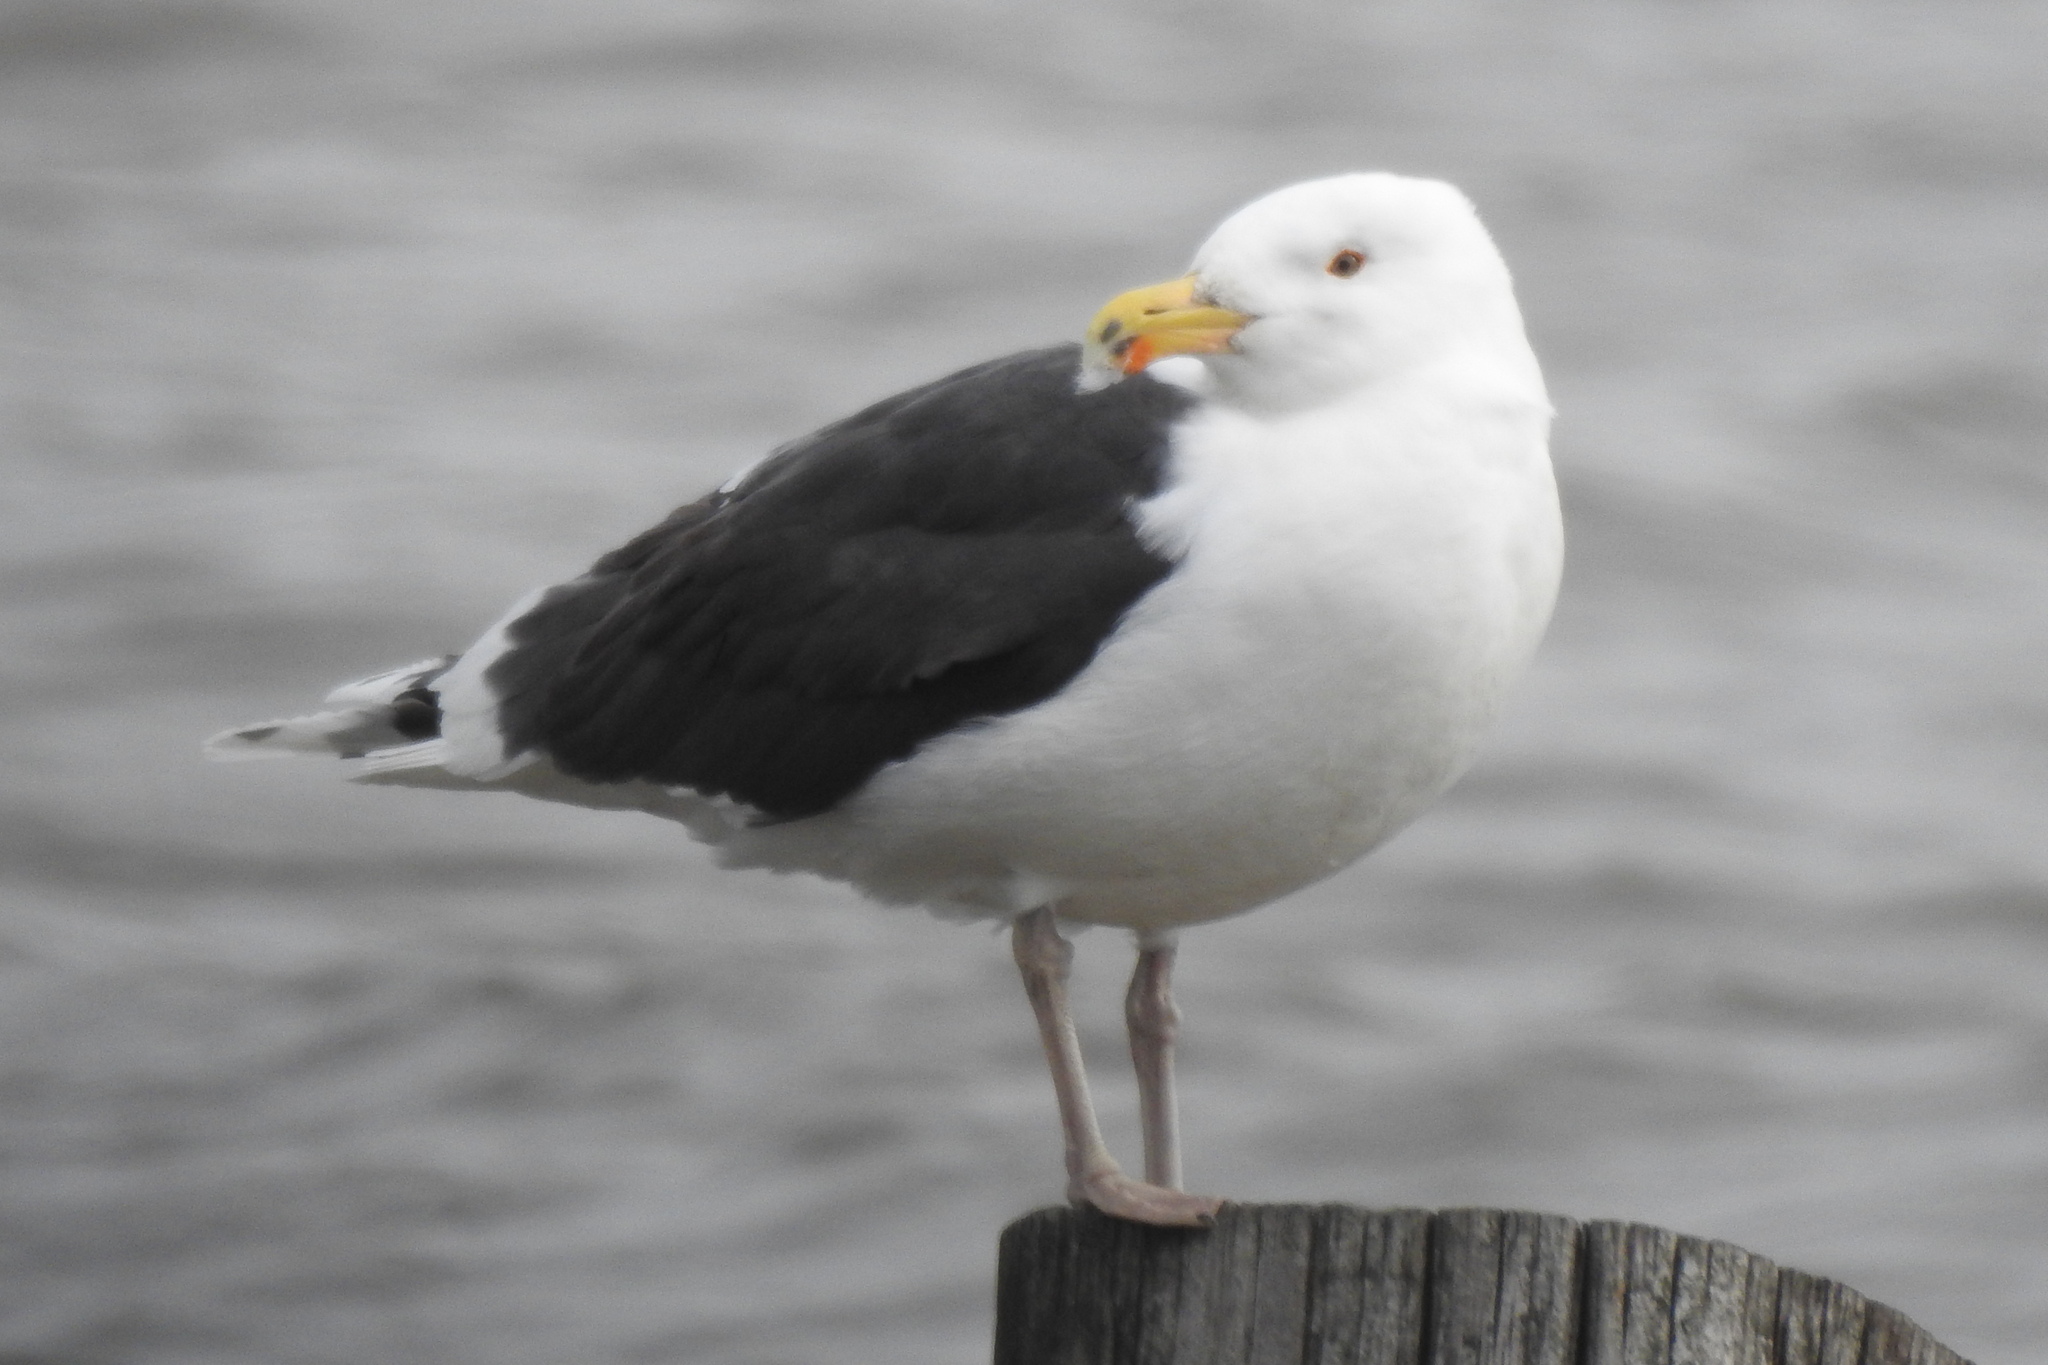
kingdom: Animalia
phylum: Chordata
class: Aves
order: Charadriiformes
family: Laridae
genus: Larus
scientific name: Larus marinus
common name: Great black-backed gull
